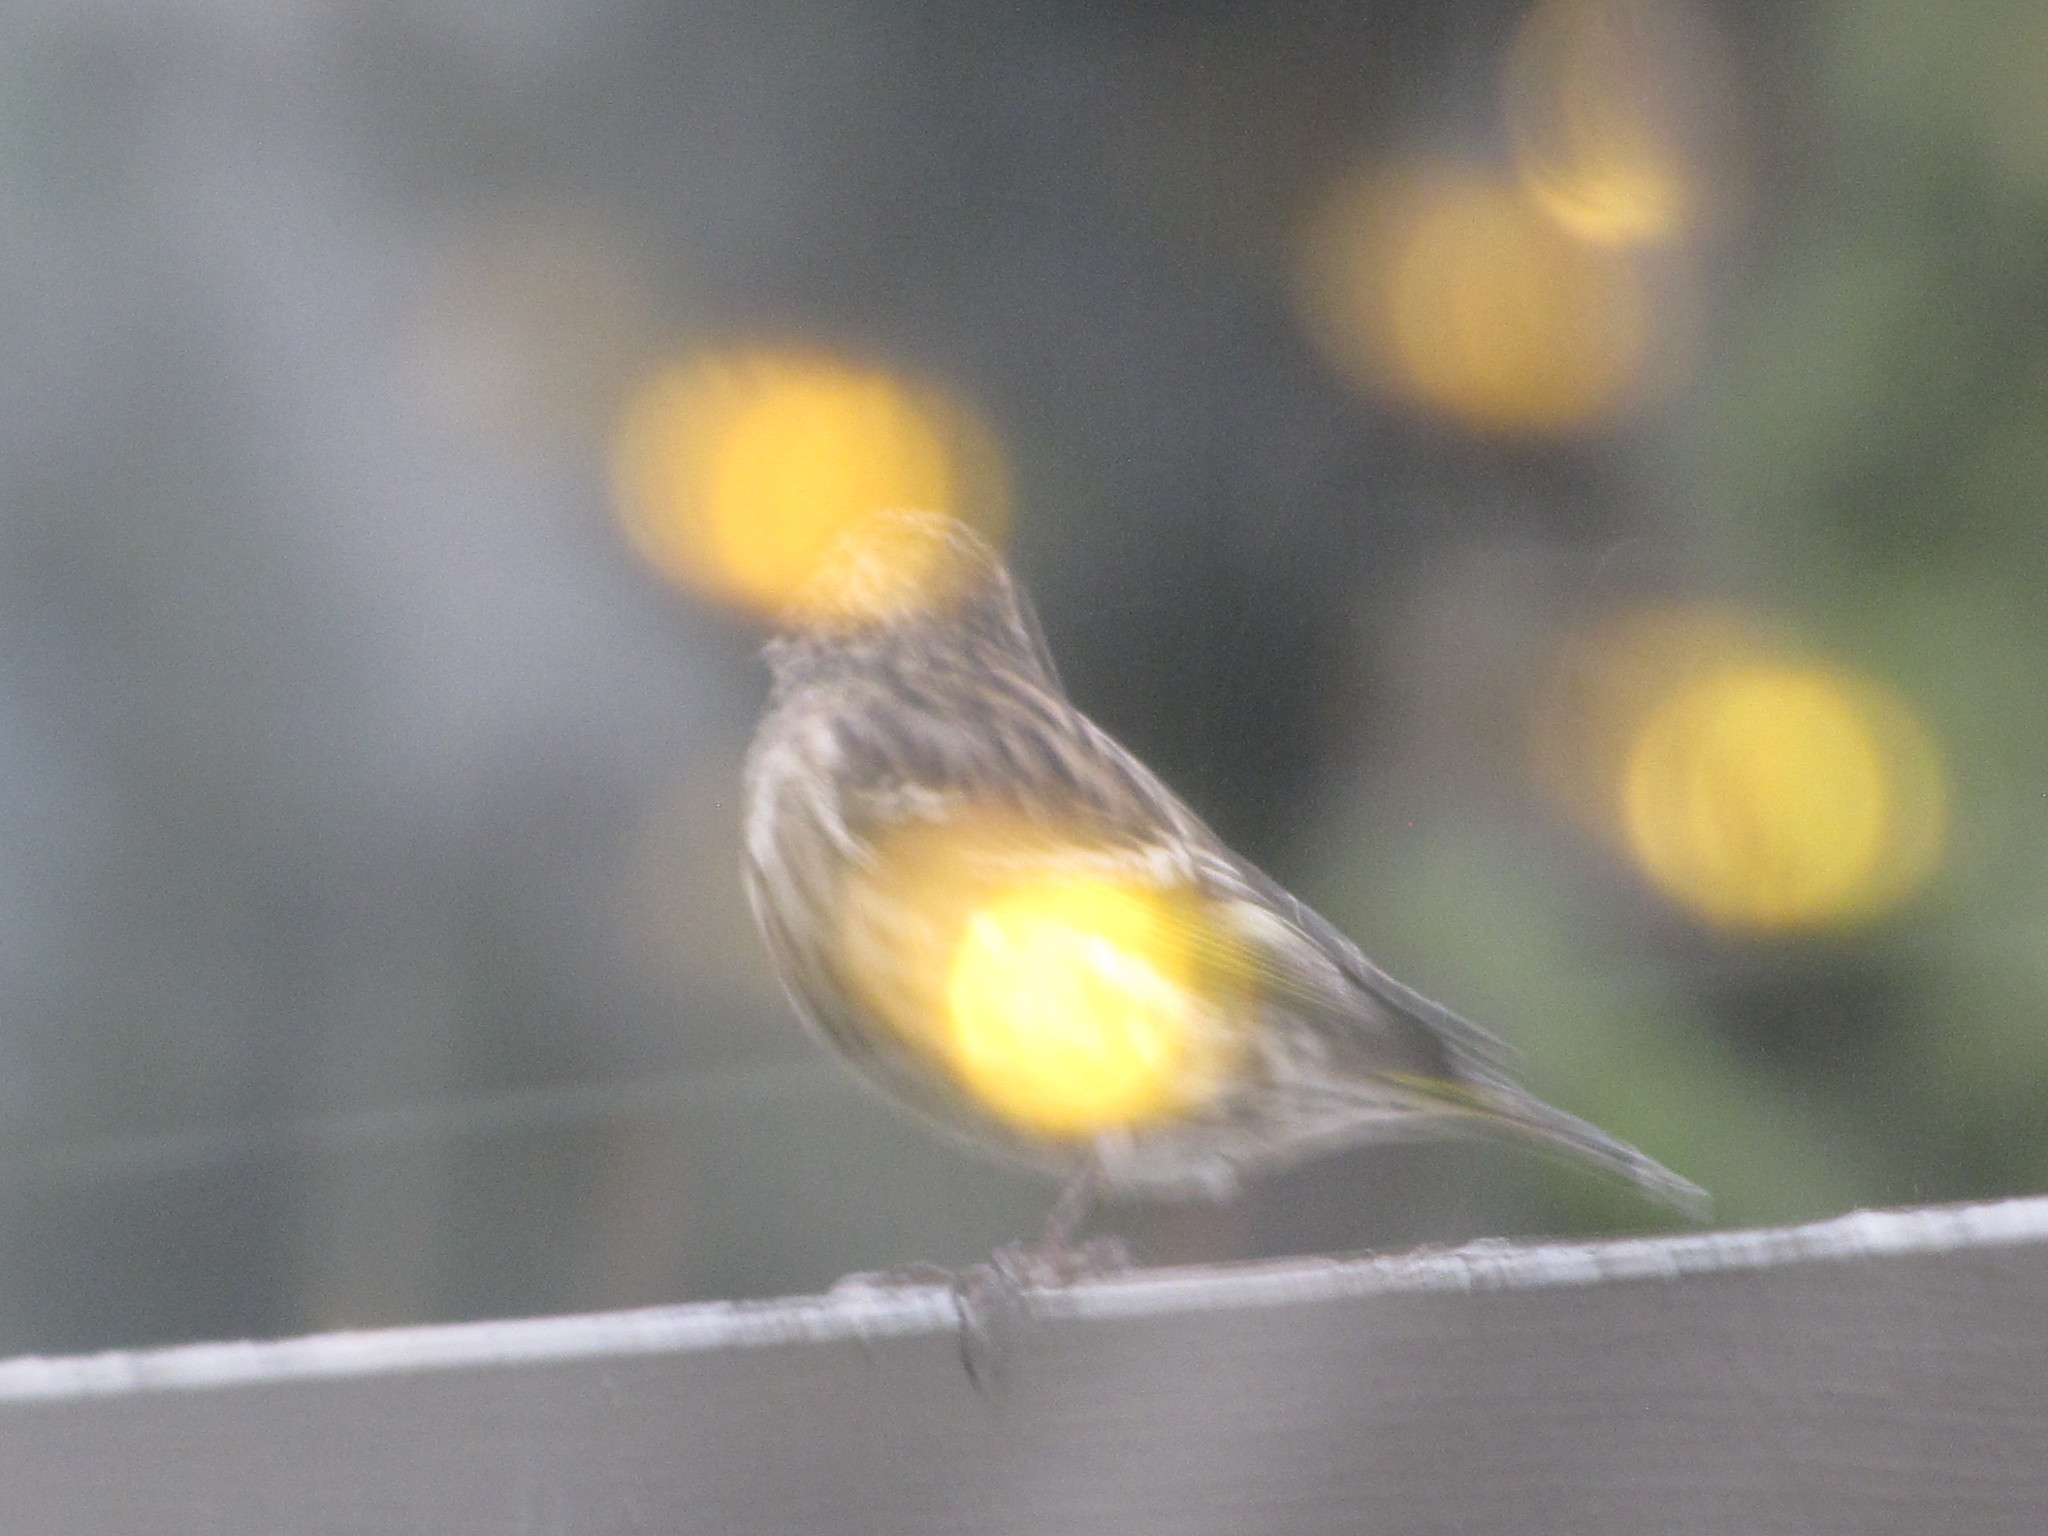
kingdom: Animalia
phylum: Chordata
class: Aves
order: Passeriformes
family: Fringillidae
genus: Spinus
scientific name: Spinus pinus
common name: Pine siskin
